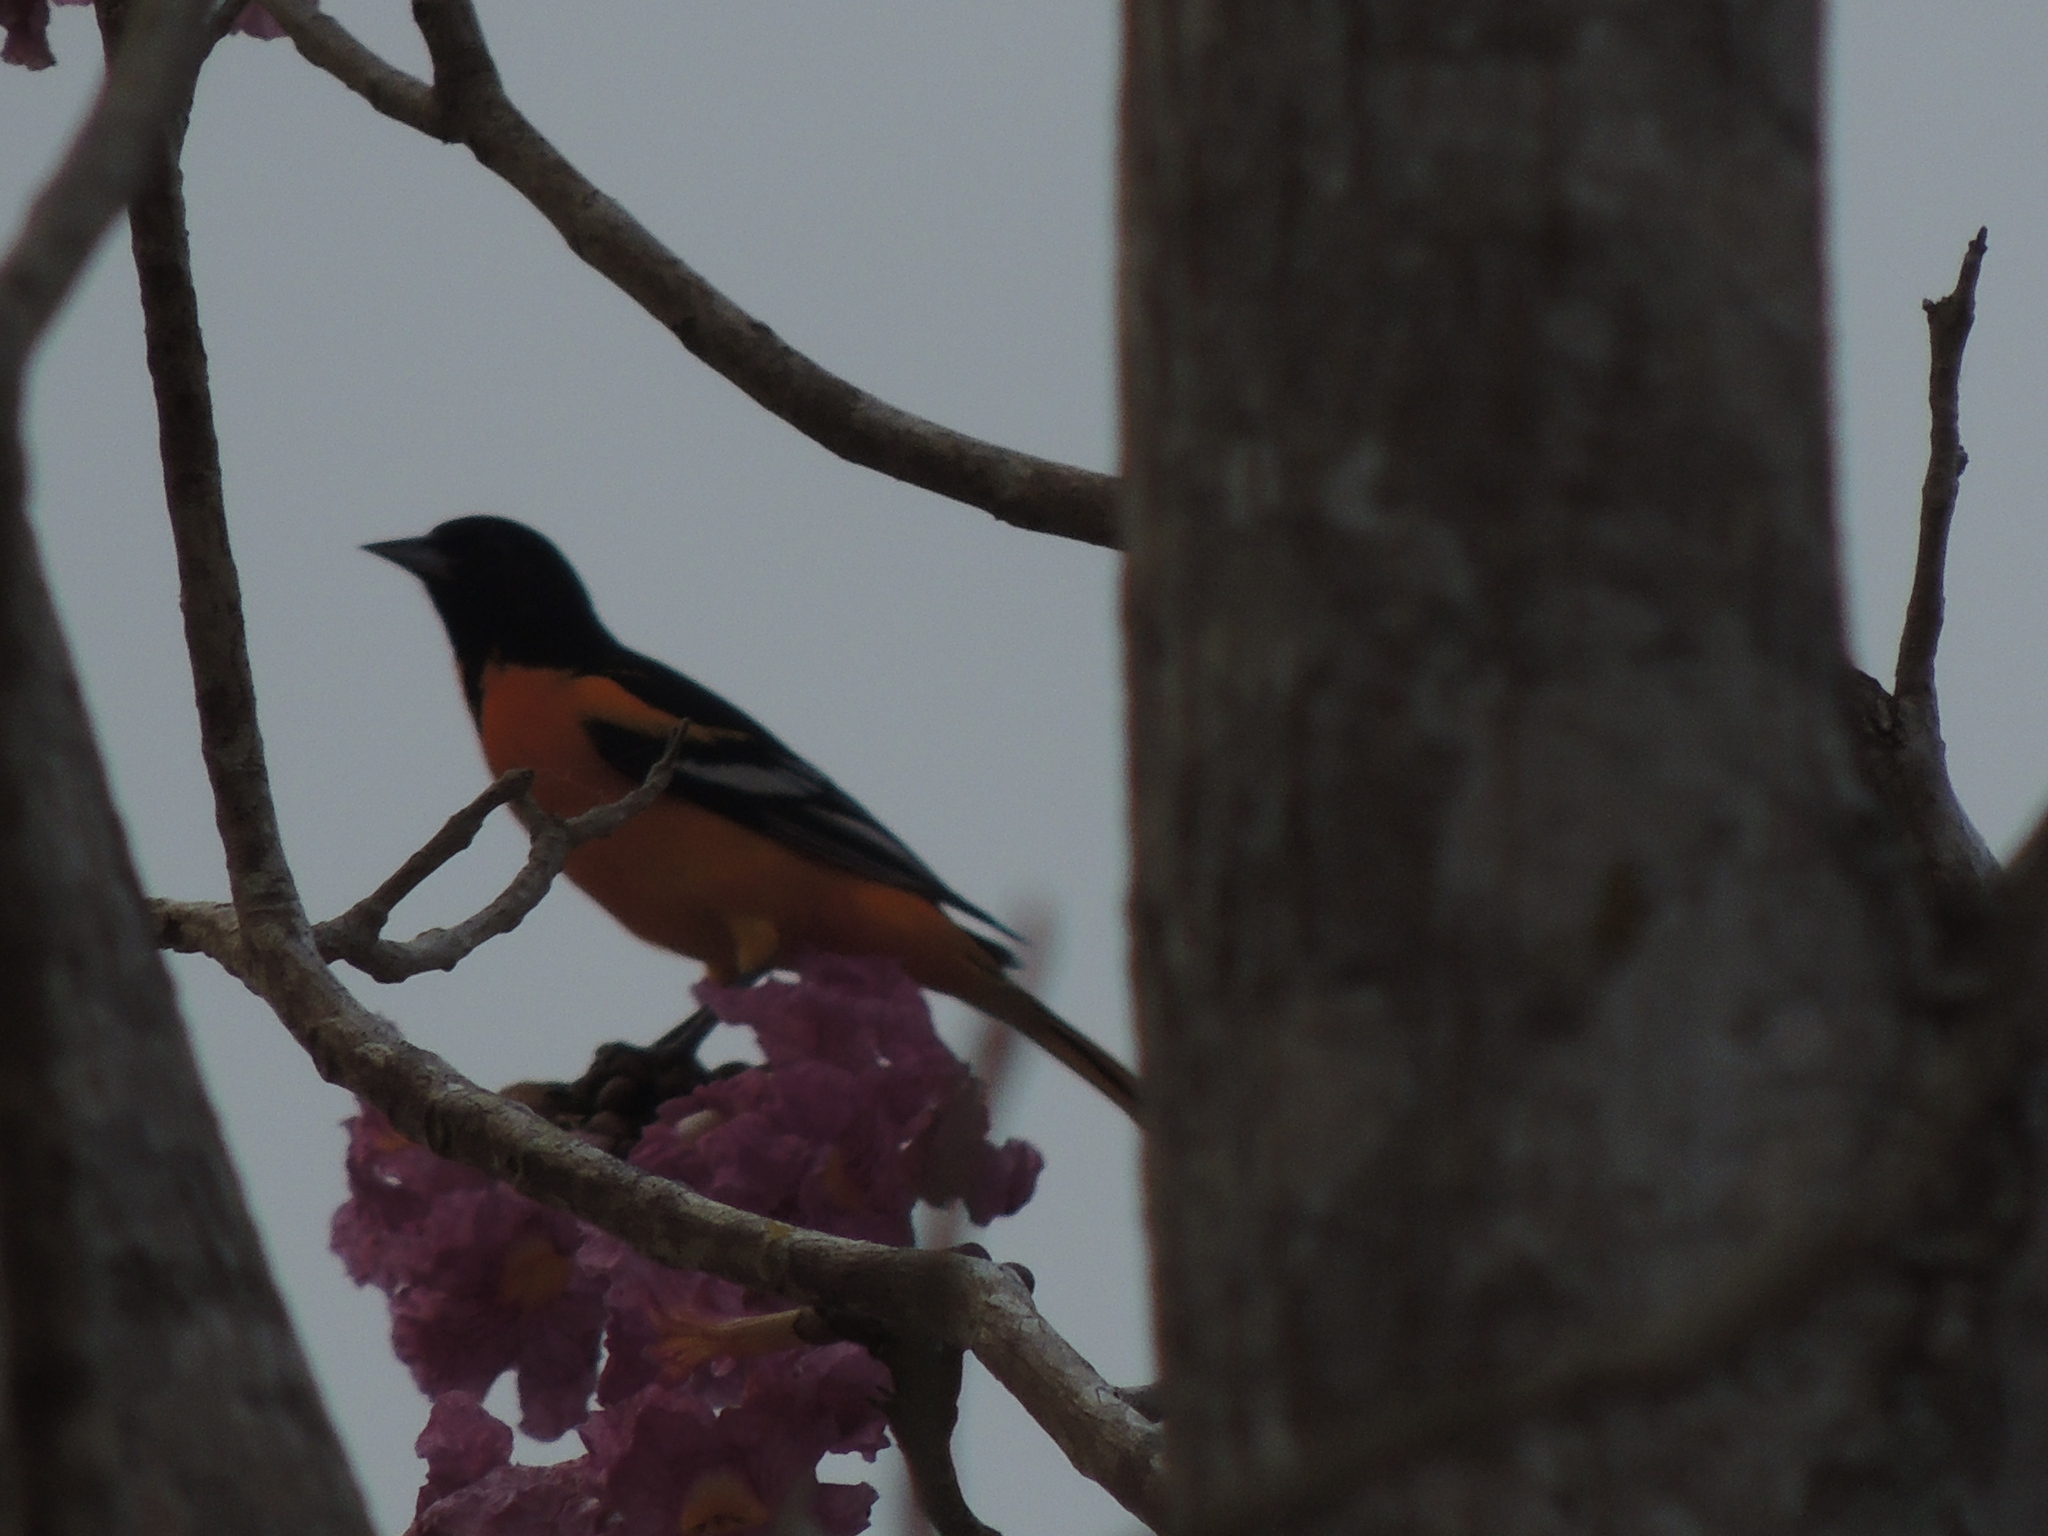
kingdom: Animalia
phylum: Chordata
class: Aves
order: Passeriformes
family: Icteridae
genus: Icterus
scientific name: Icterus galbula
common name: Baltimore oriole
